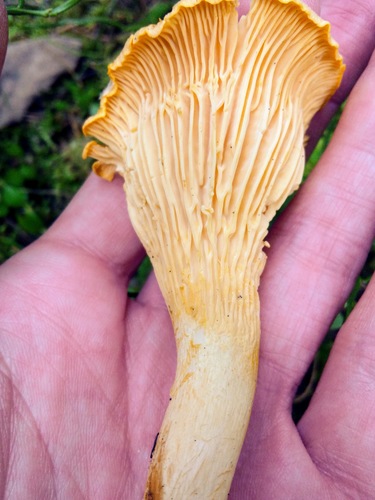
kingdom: Fungi
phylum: Basidiomycota
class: Agaricomycetes
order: Cantharellales
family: Hydnaceae
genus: Cantharellus
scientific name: Cantharellus cibarius
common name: Chanterelle
